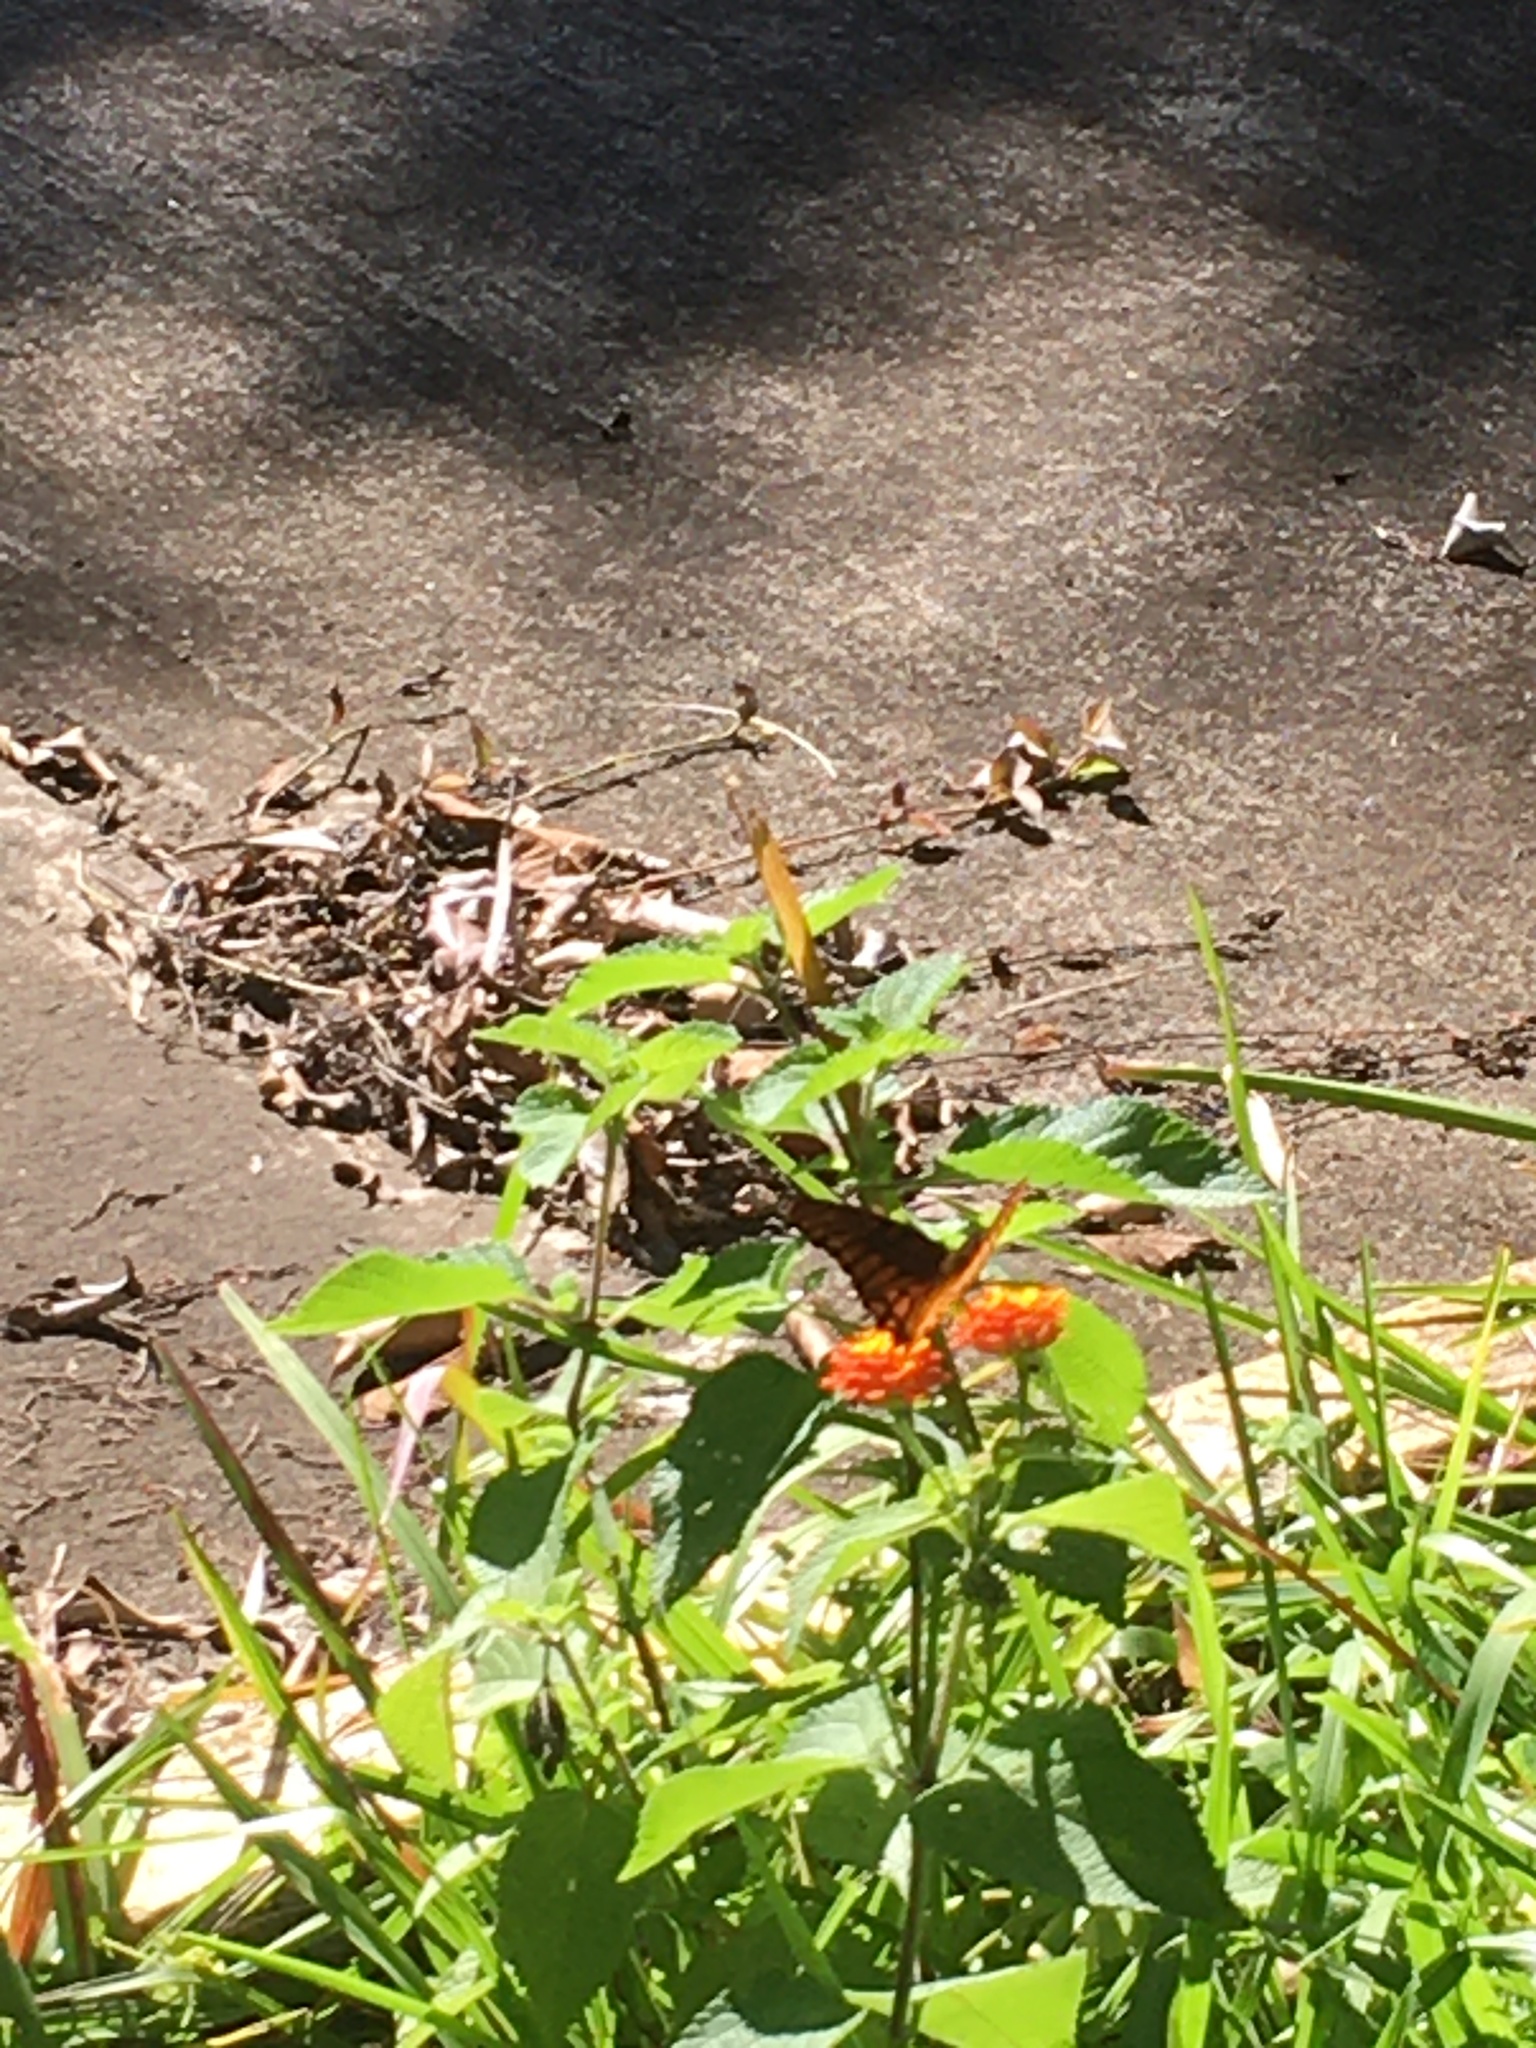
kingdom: Animalia
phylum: Arthropoda
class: Insecta
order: Lepidoptera
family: Nymphalidae
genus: Dione
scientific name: Dione moneta
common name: Mexican silverspot
